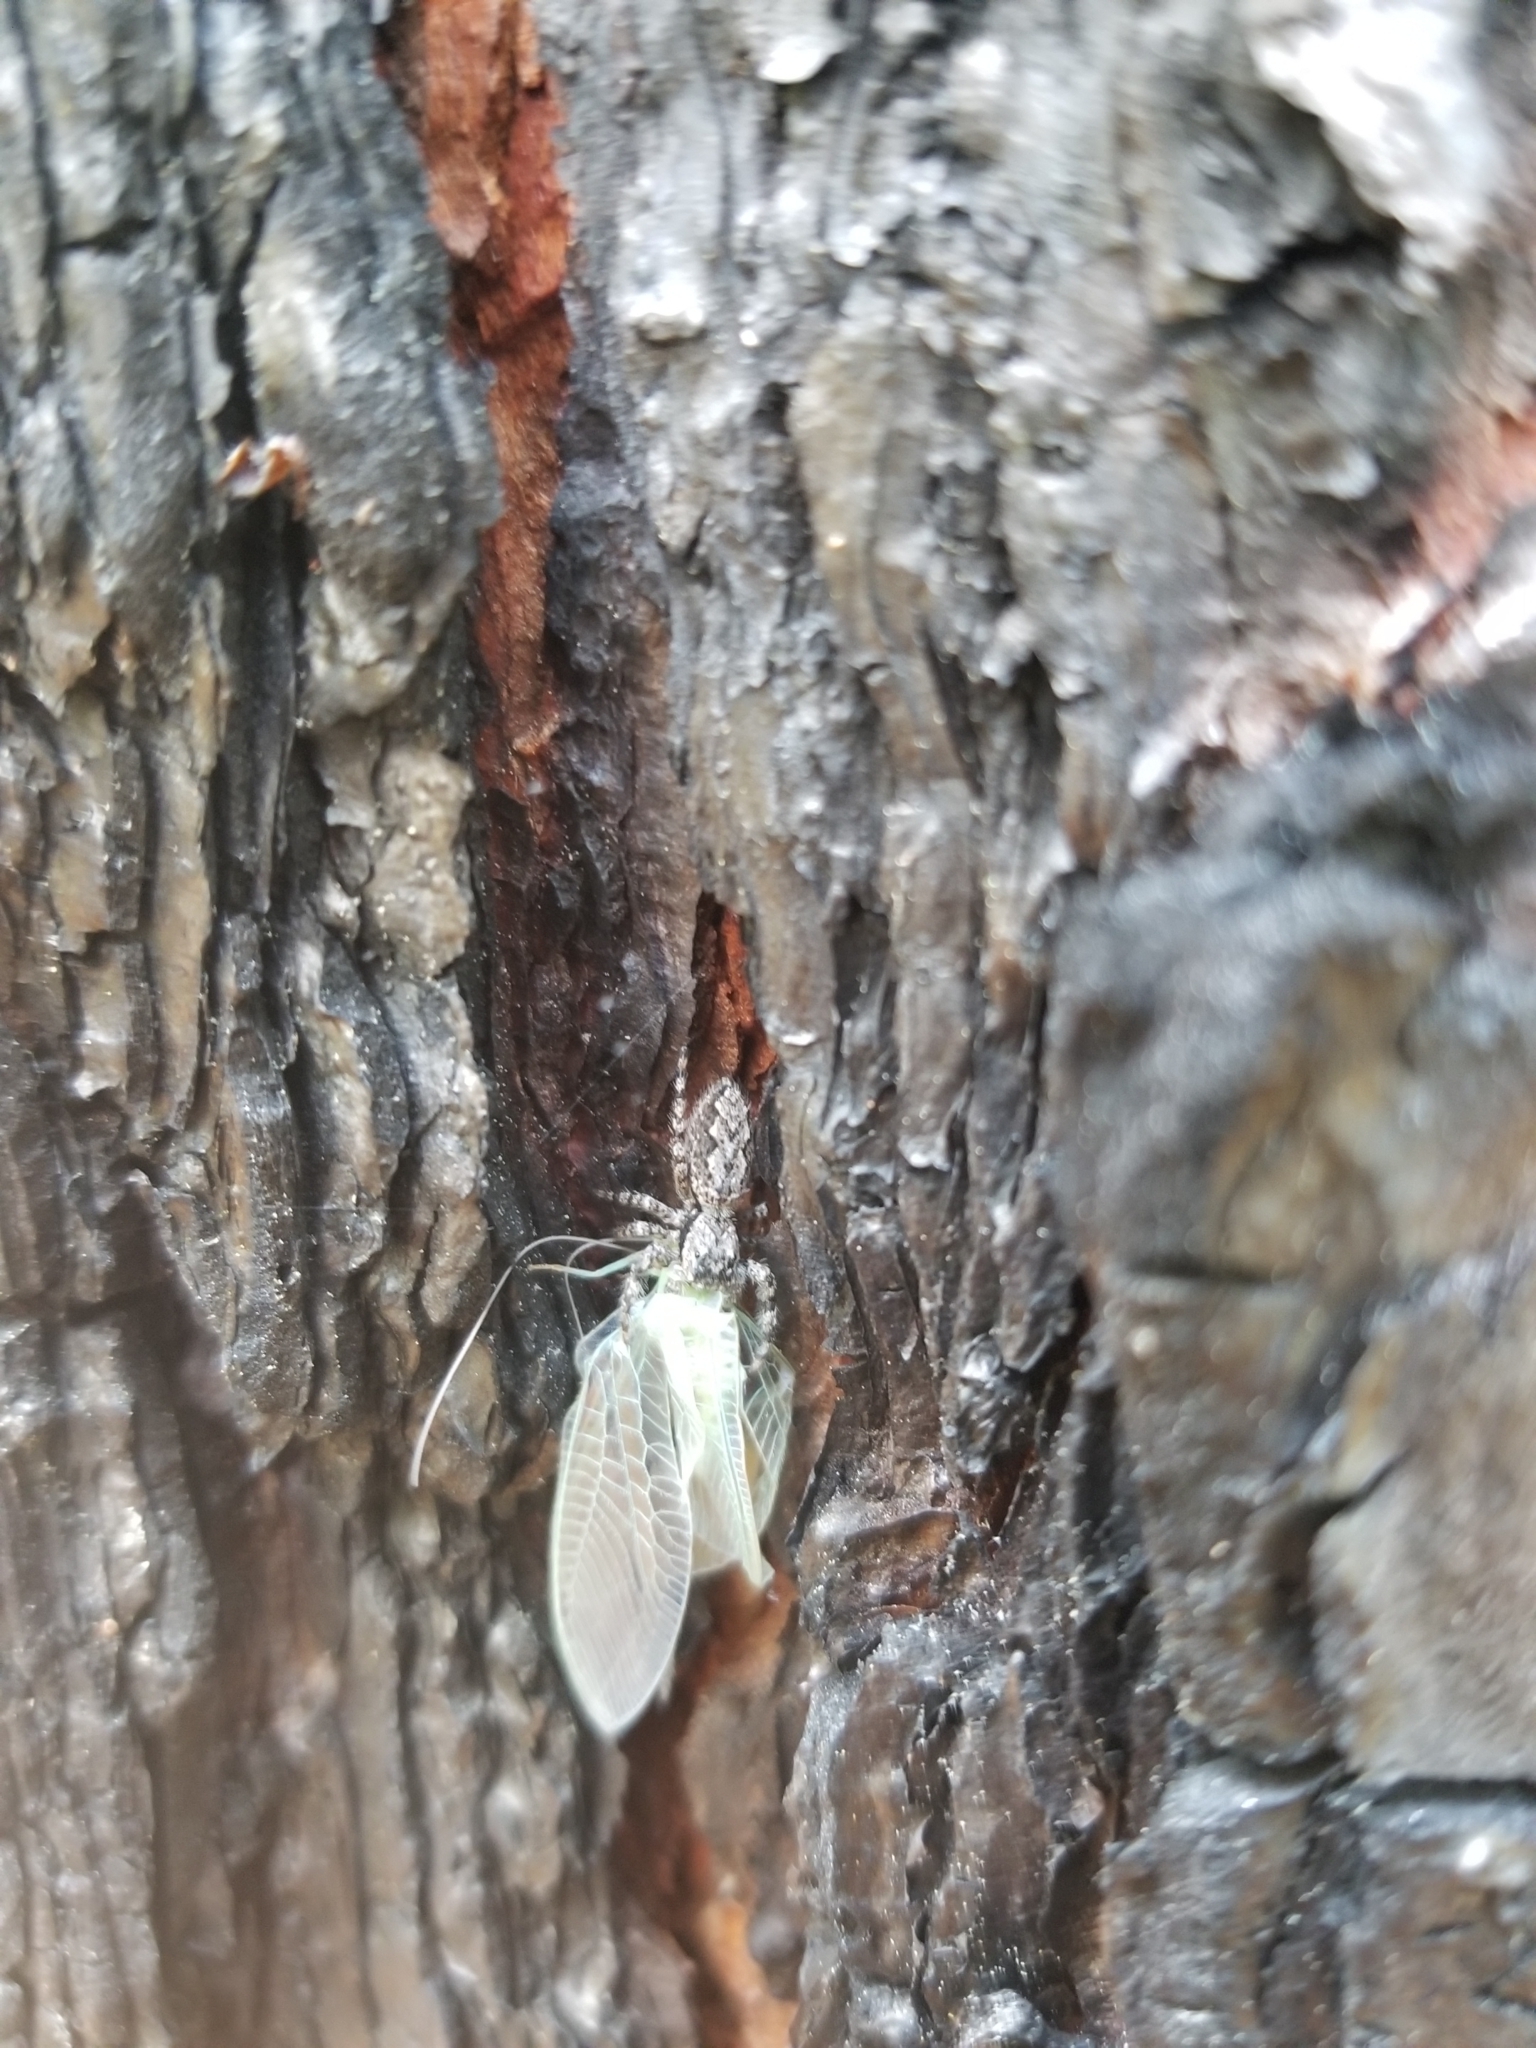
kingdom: Animalia
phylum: Arthropoda
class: Arachnida
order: Araneae
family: Salticidae
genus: Platycryptus
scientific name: Platycryptus undatus
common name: Tan jumping spider
